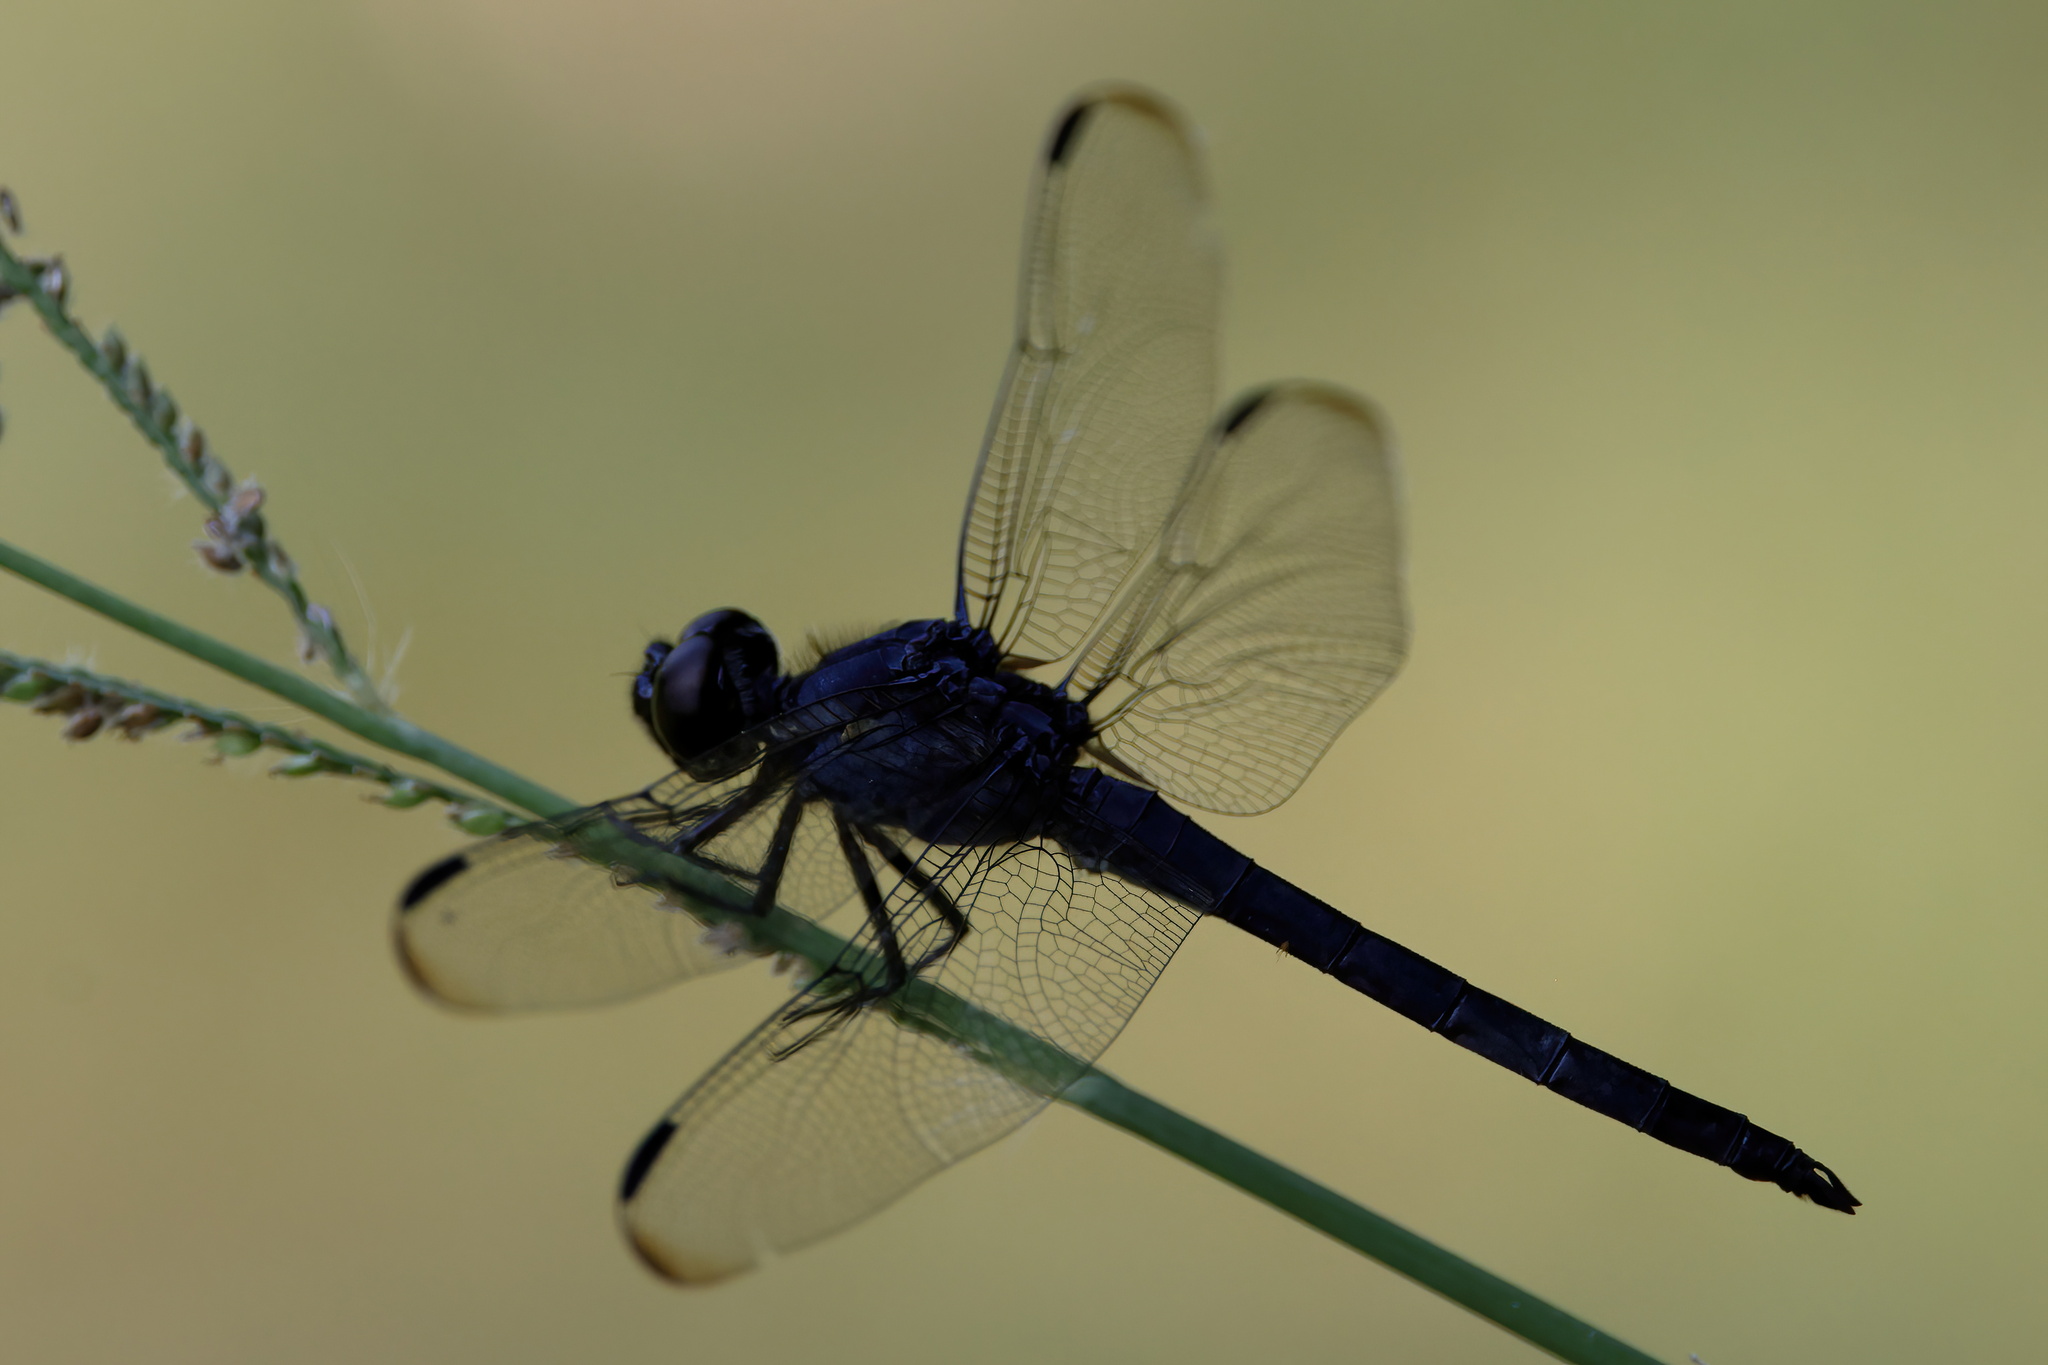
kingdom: Animalia
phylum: Arthropoda
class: Insecta
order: Odonata
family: Libellulidae
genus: Libellula
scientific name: Libellula incesta
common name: Slaty skimmer
